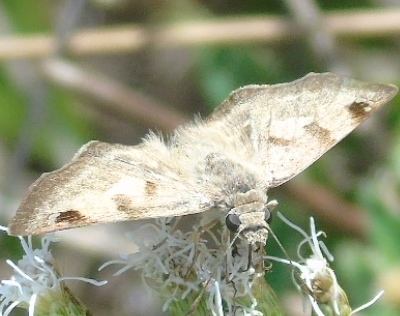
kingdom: Animalia
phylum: Arthropoda
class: Insecta
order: Lepidoptera
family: Hesperiidae
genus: Arteurotia
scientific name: Arteurotia tractipennis
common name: Starred skipper
